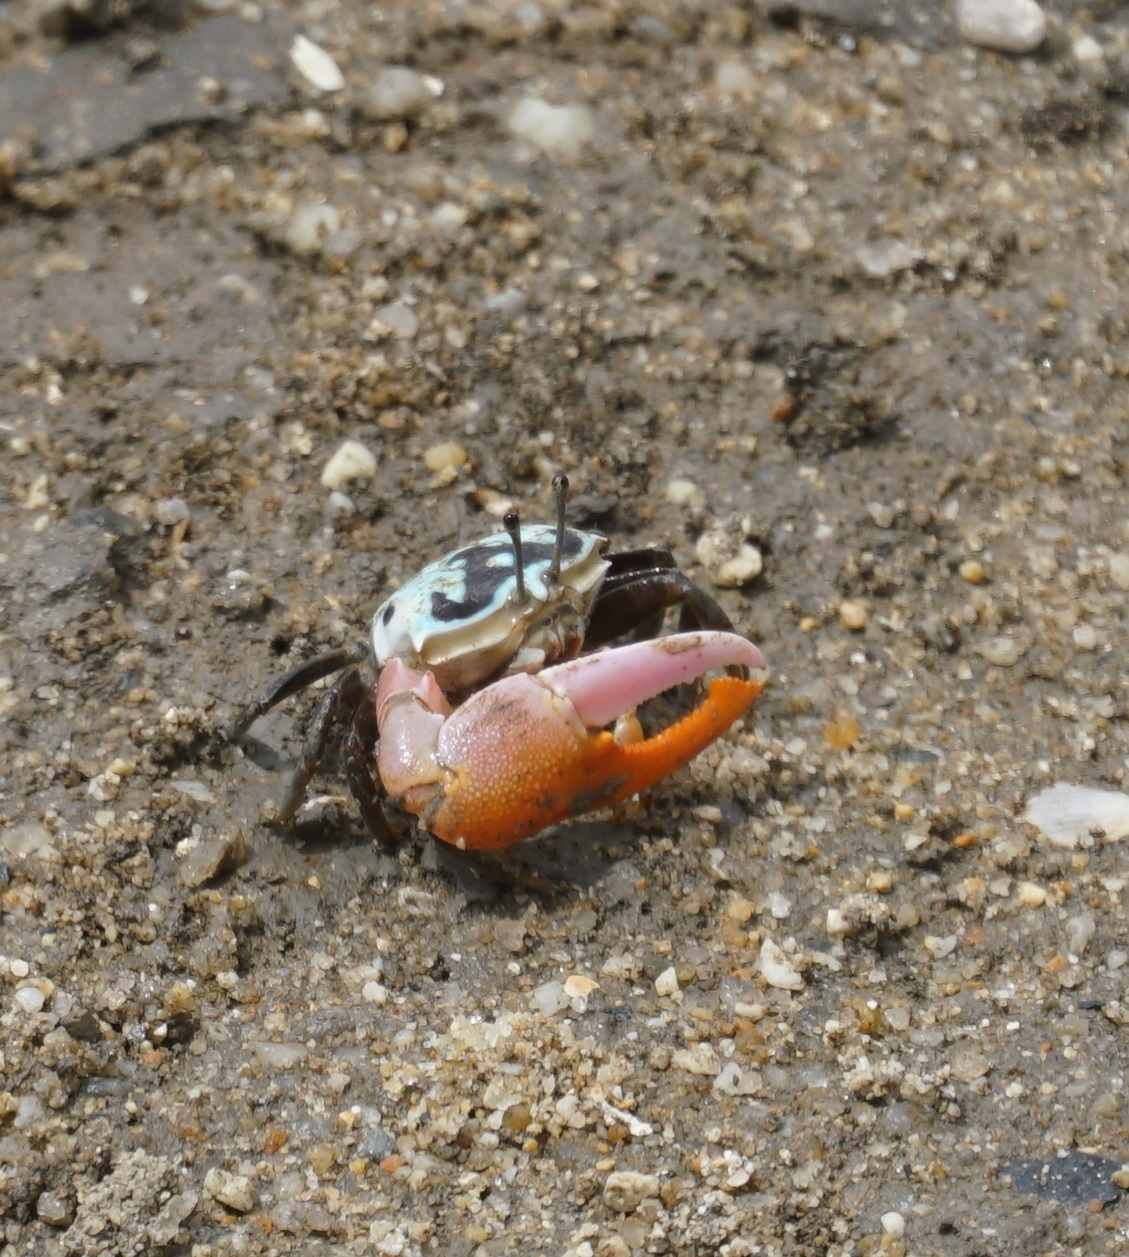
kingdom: Animalia
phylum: Arthropoda
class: Malacostraca
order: Decapoda
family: Ocypodidae
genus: Gelasimus
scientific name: Gelasimus vomeris
